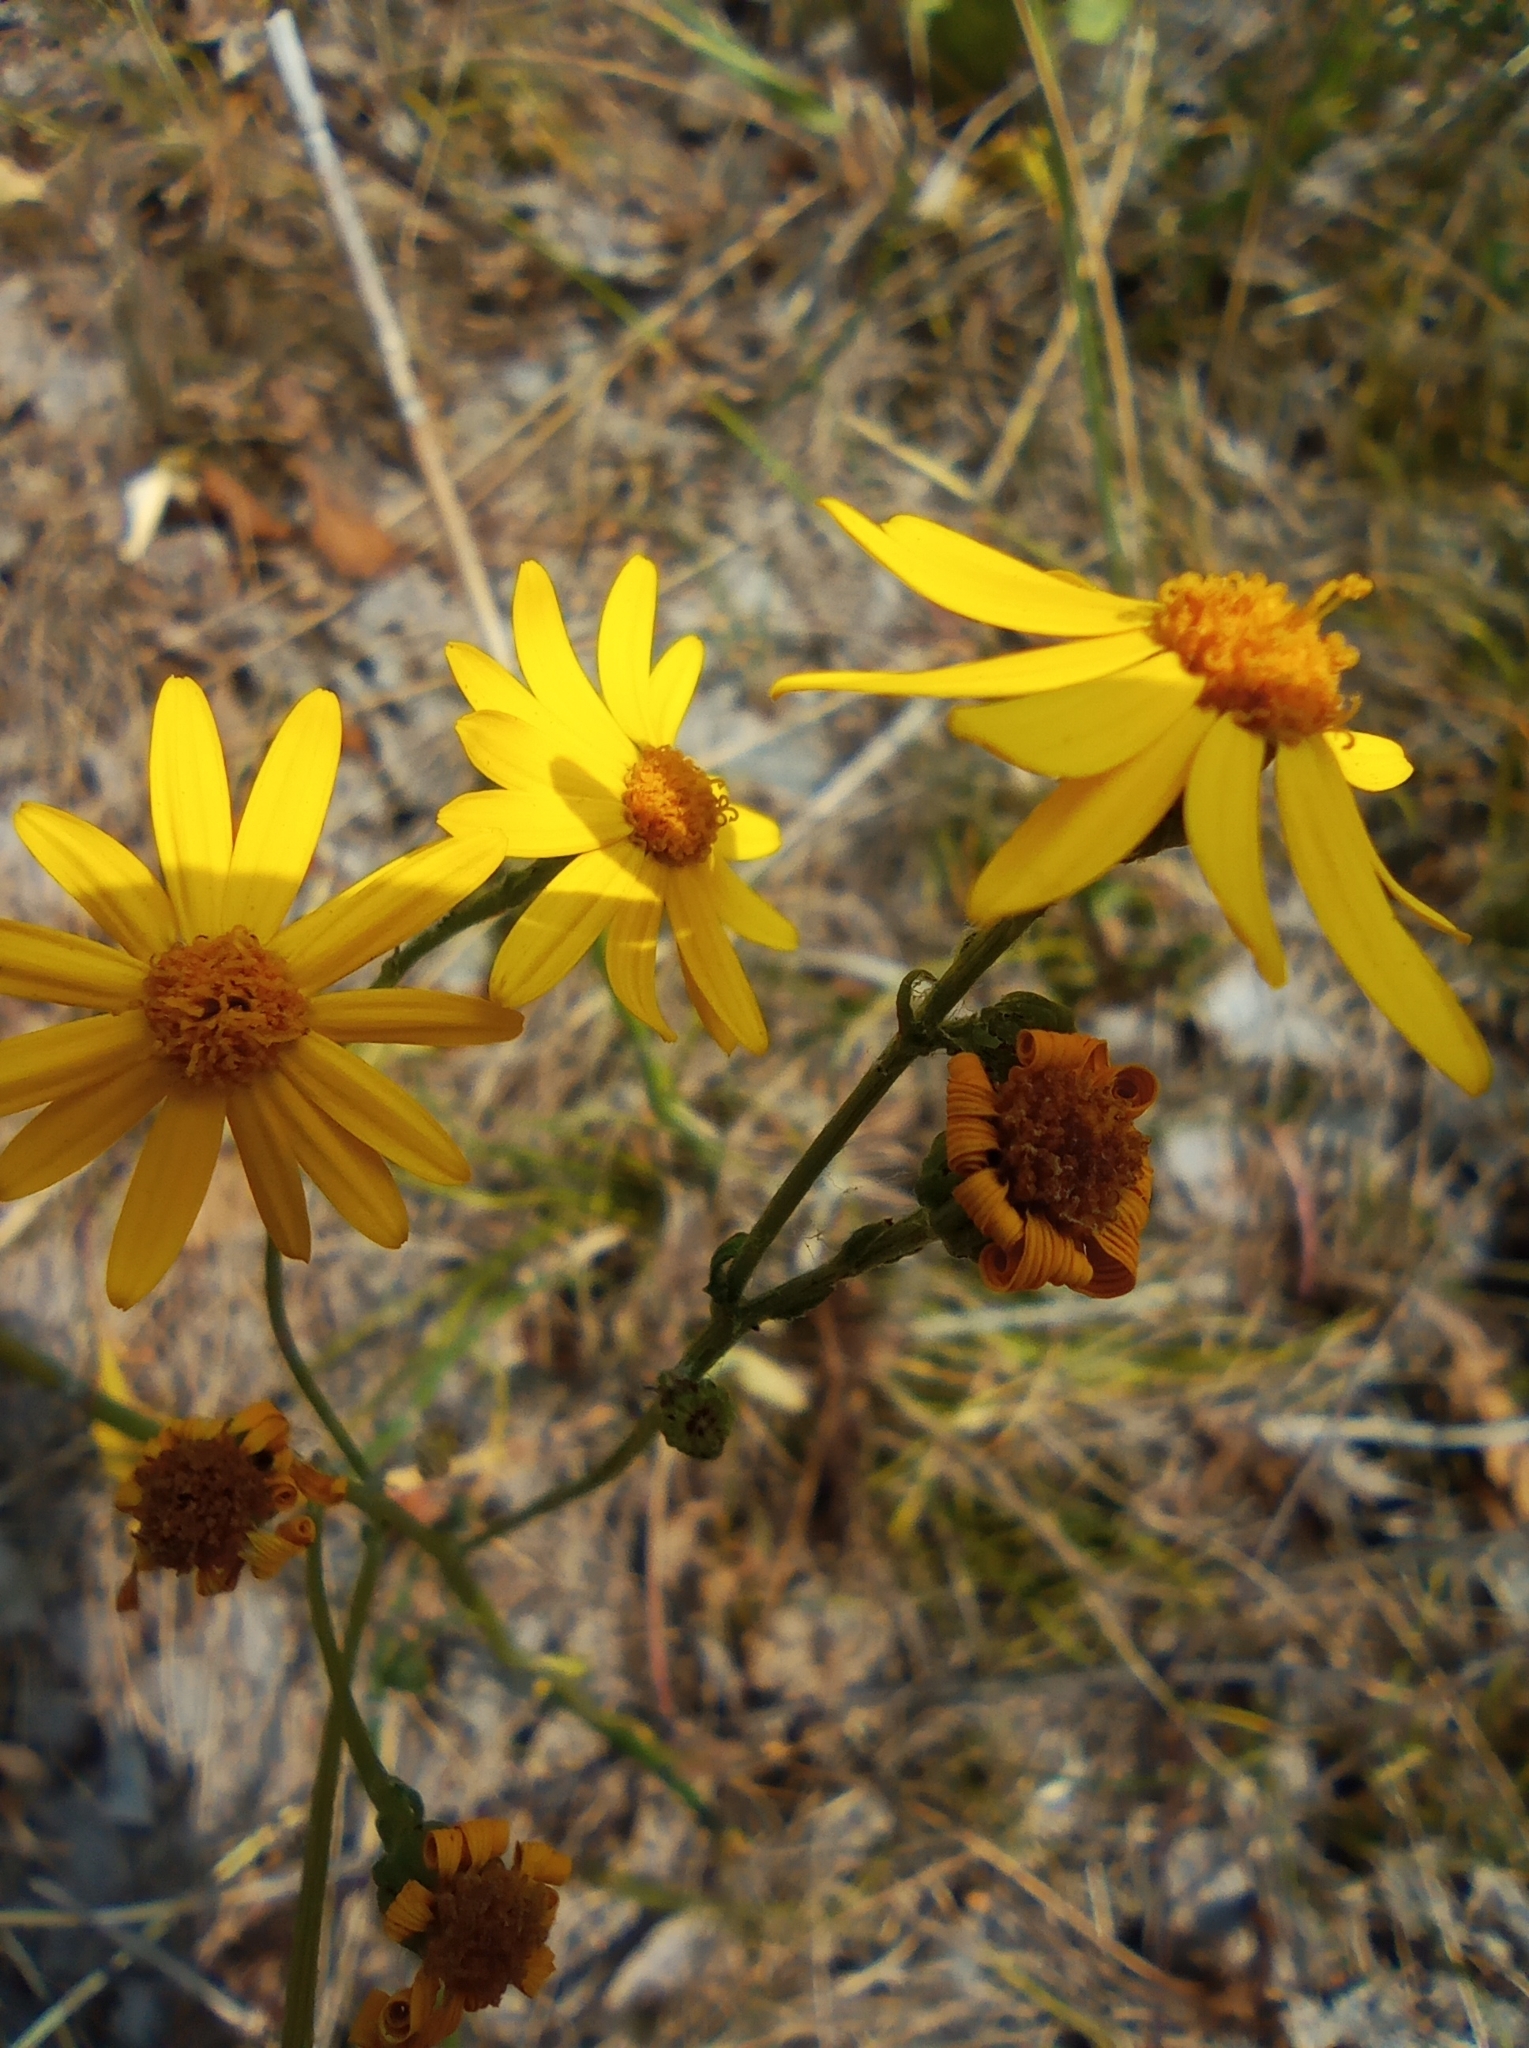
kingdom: Plantae
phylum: Tracheophyta
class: Magnoliopsida
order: Asterales
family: Asteraceae
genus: Jacobaea
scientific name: Jacobaea vulgaris
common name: Stinking willie
